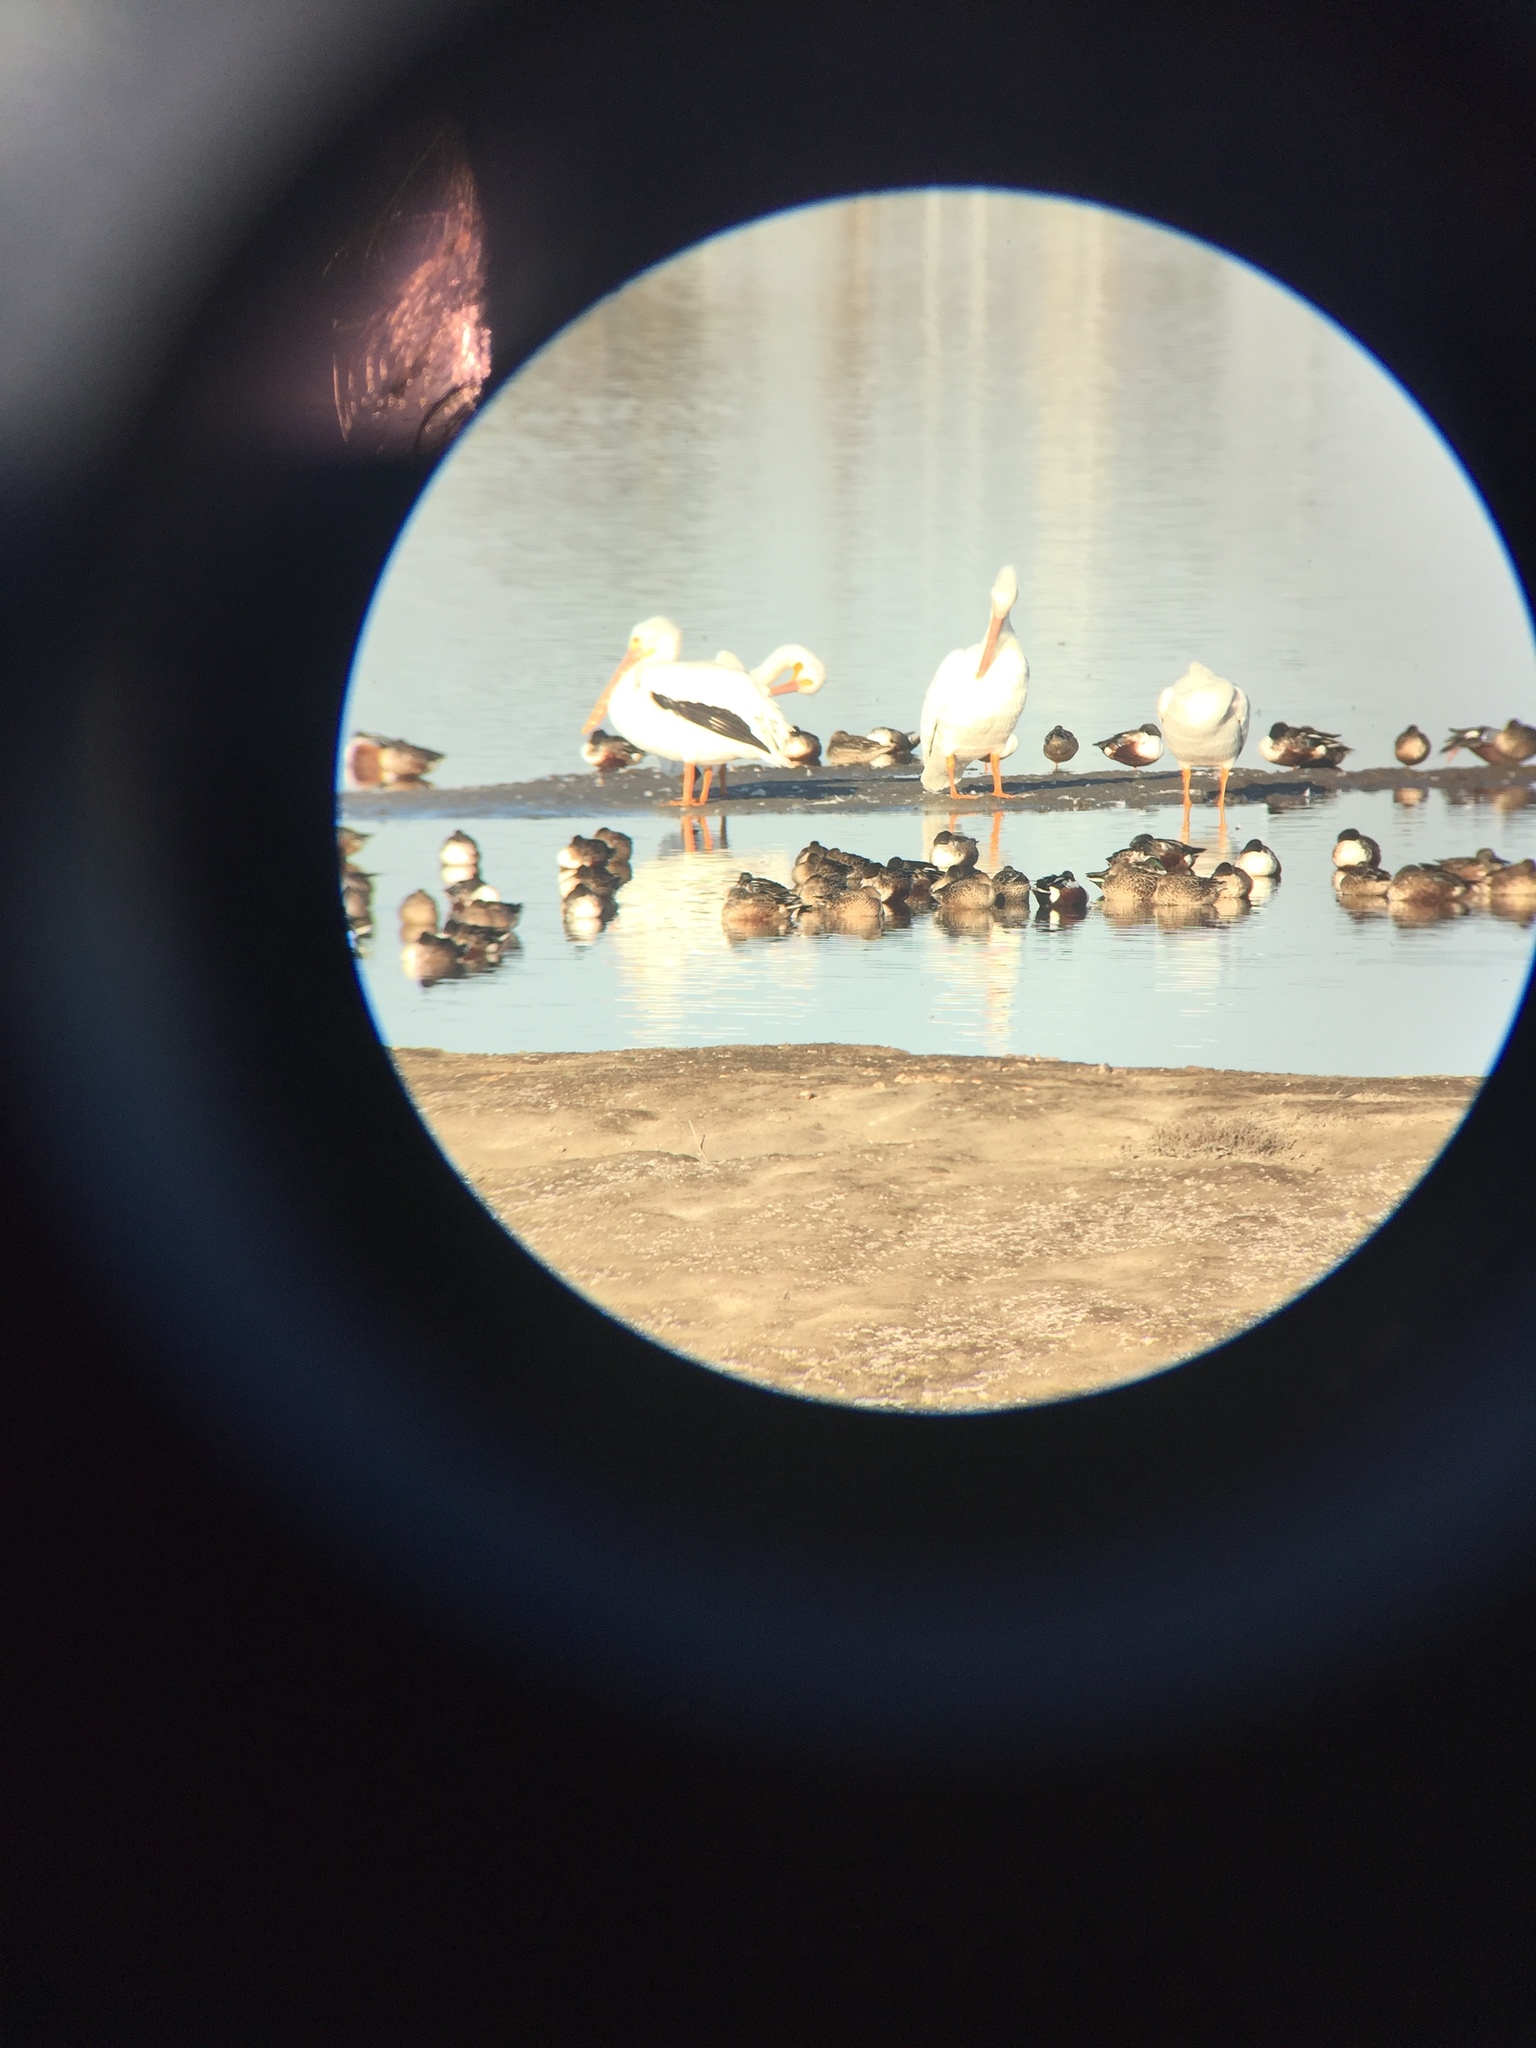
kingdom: Animalia
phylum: Chordata
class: Aves
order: Pelecaniformes
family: Pelecanidae
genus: Pelecanus
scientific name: Pelecanus erythrorhynchos
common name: American white pelican
